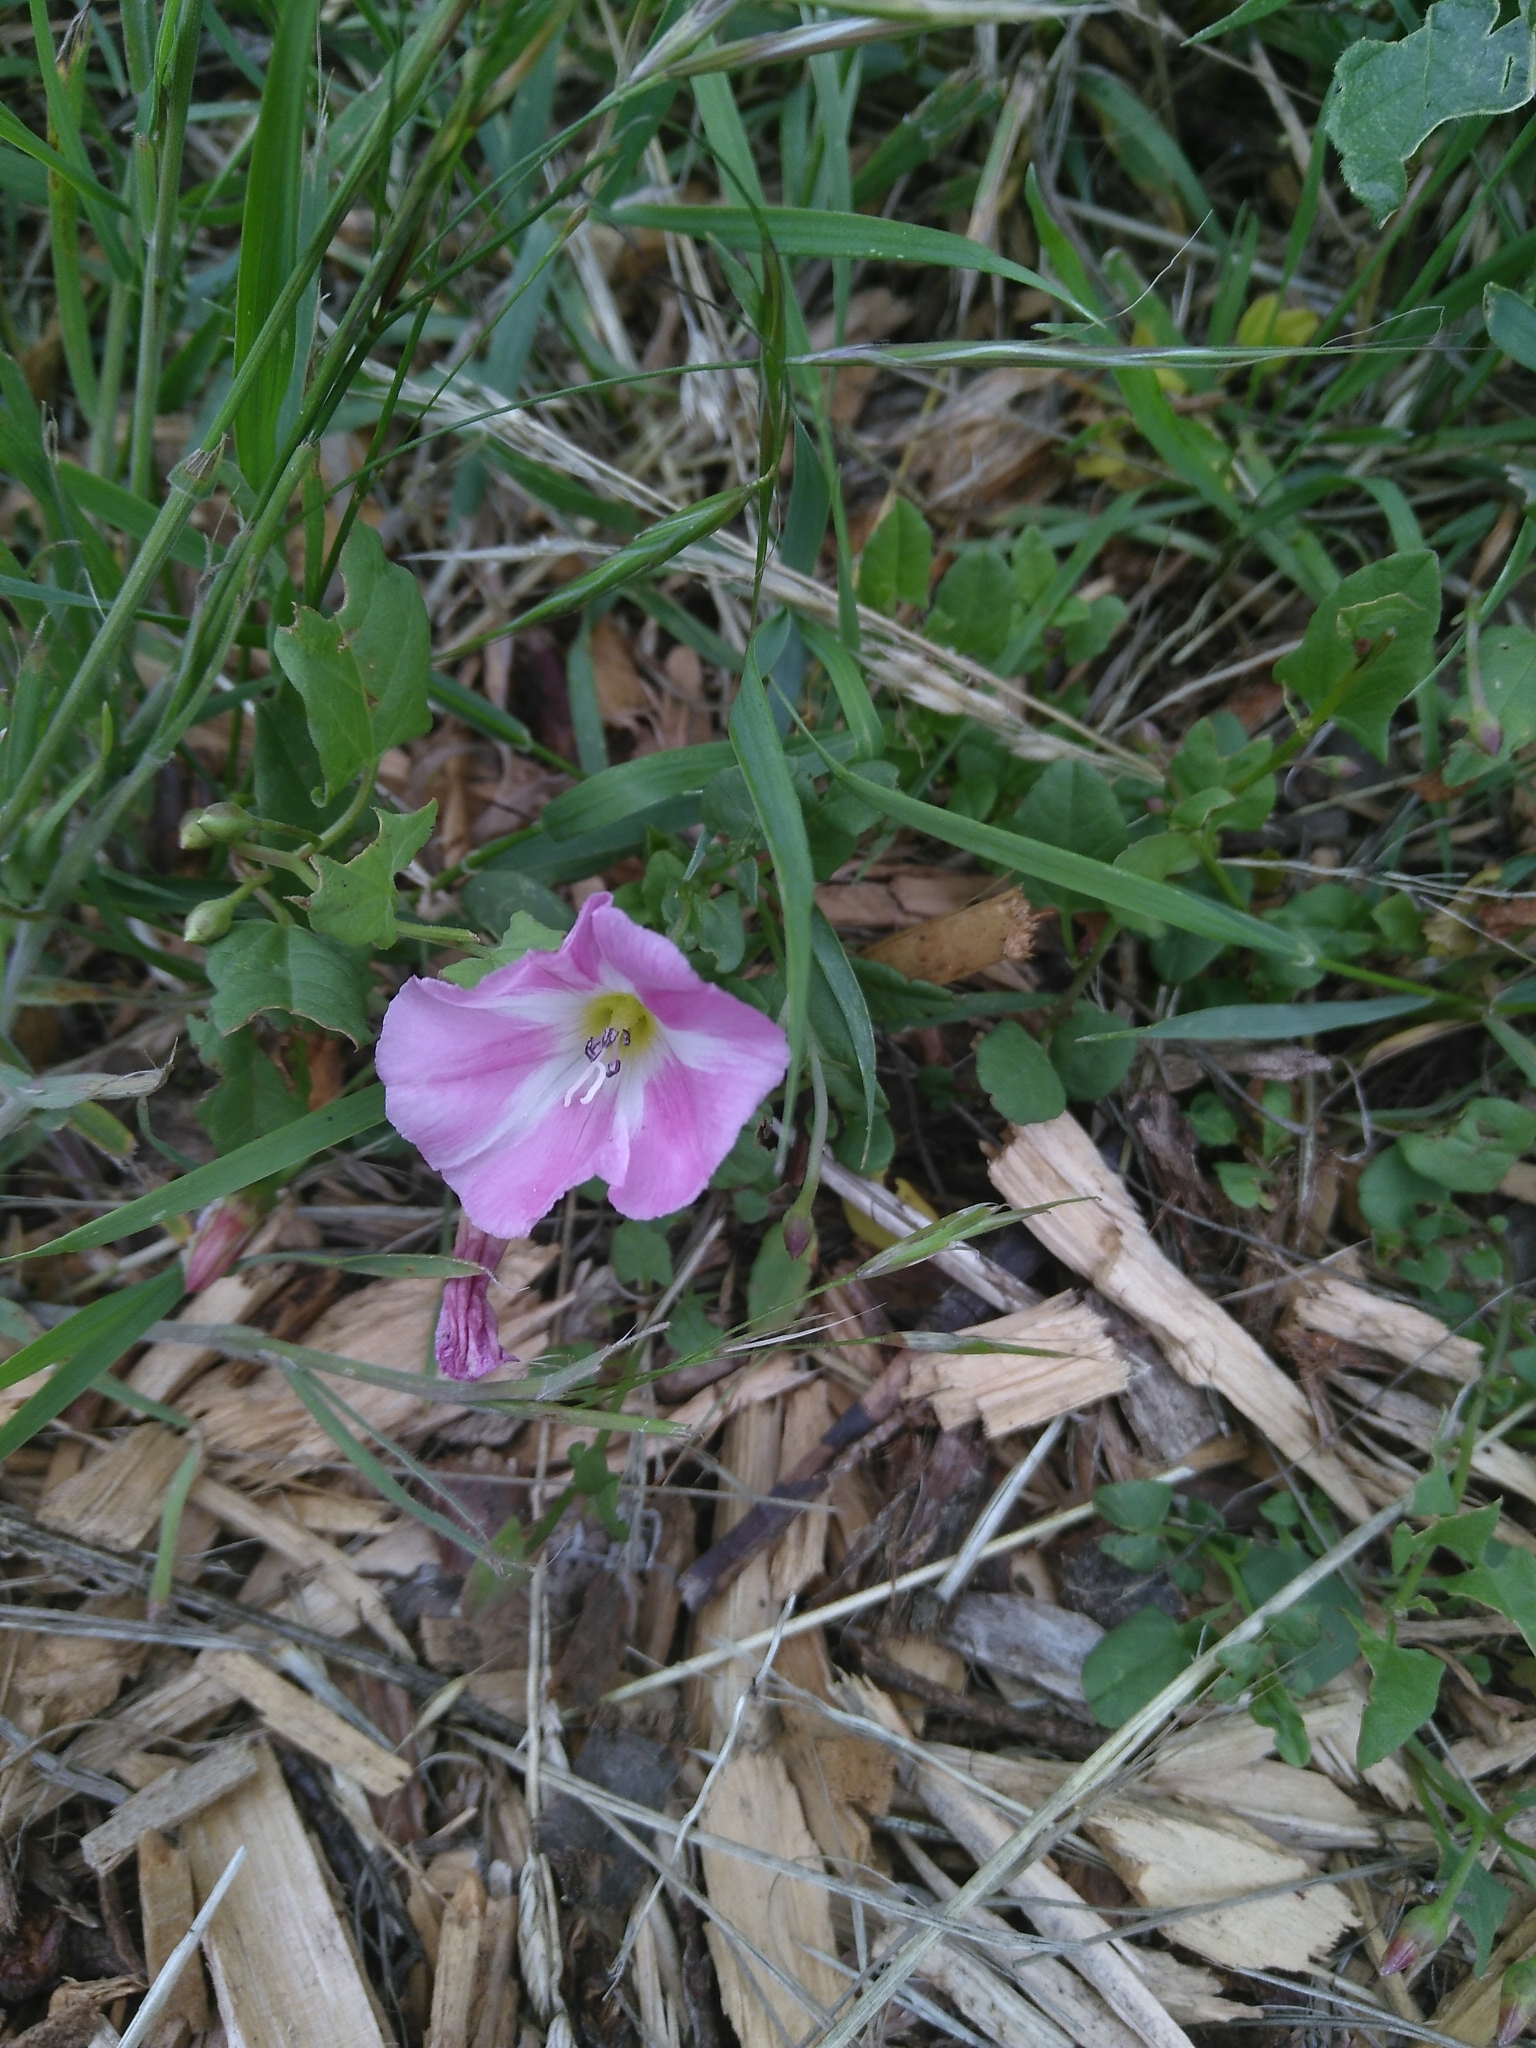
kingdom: Plantae
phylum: Tracheophyta
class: Magnoliopsida
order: Solanales
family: Convolvulaceae
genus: Convolvulus
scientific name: Convolvulus arvensis
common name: Field bindweed
